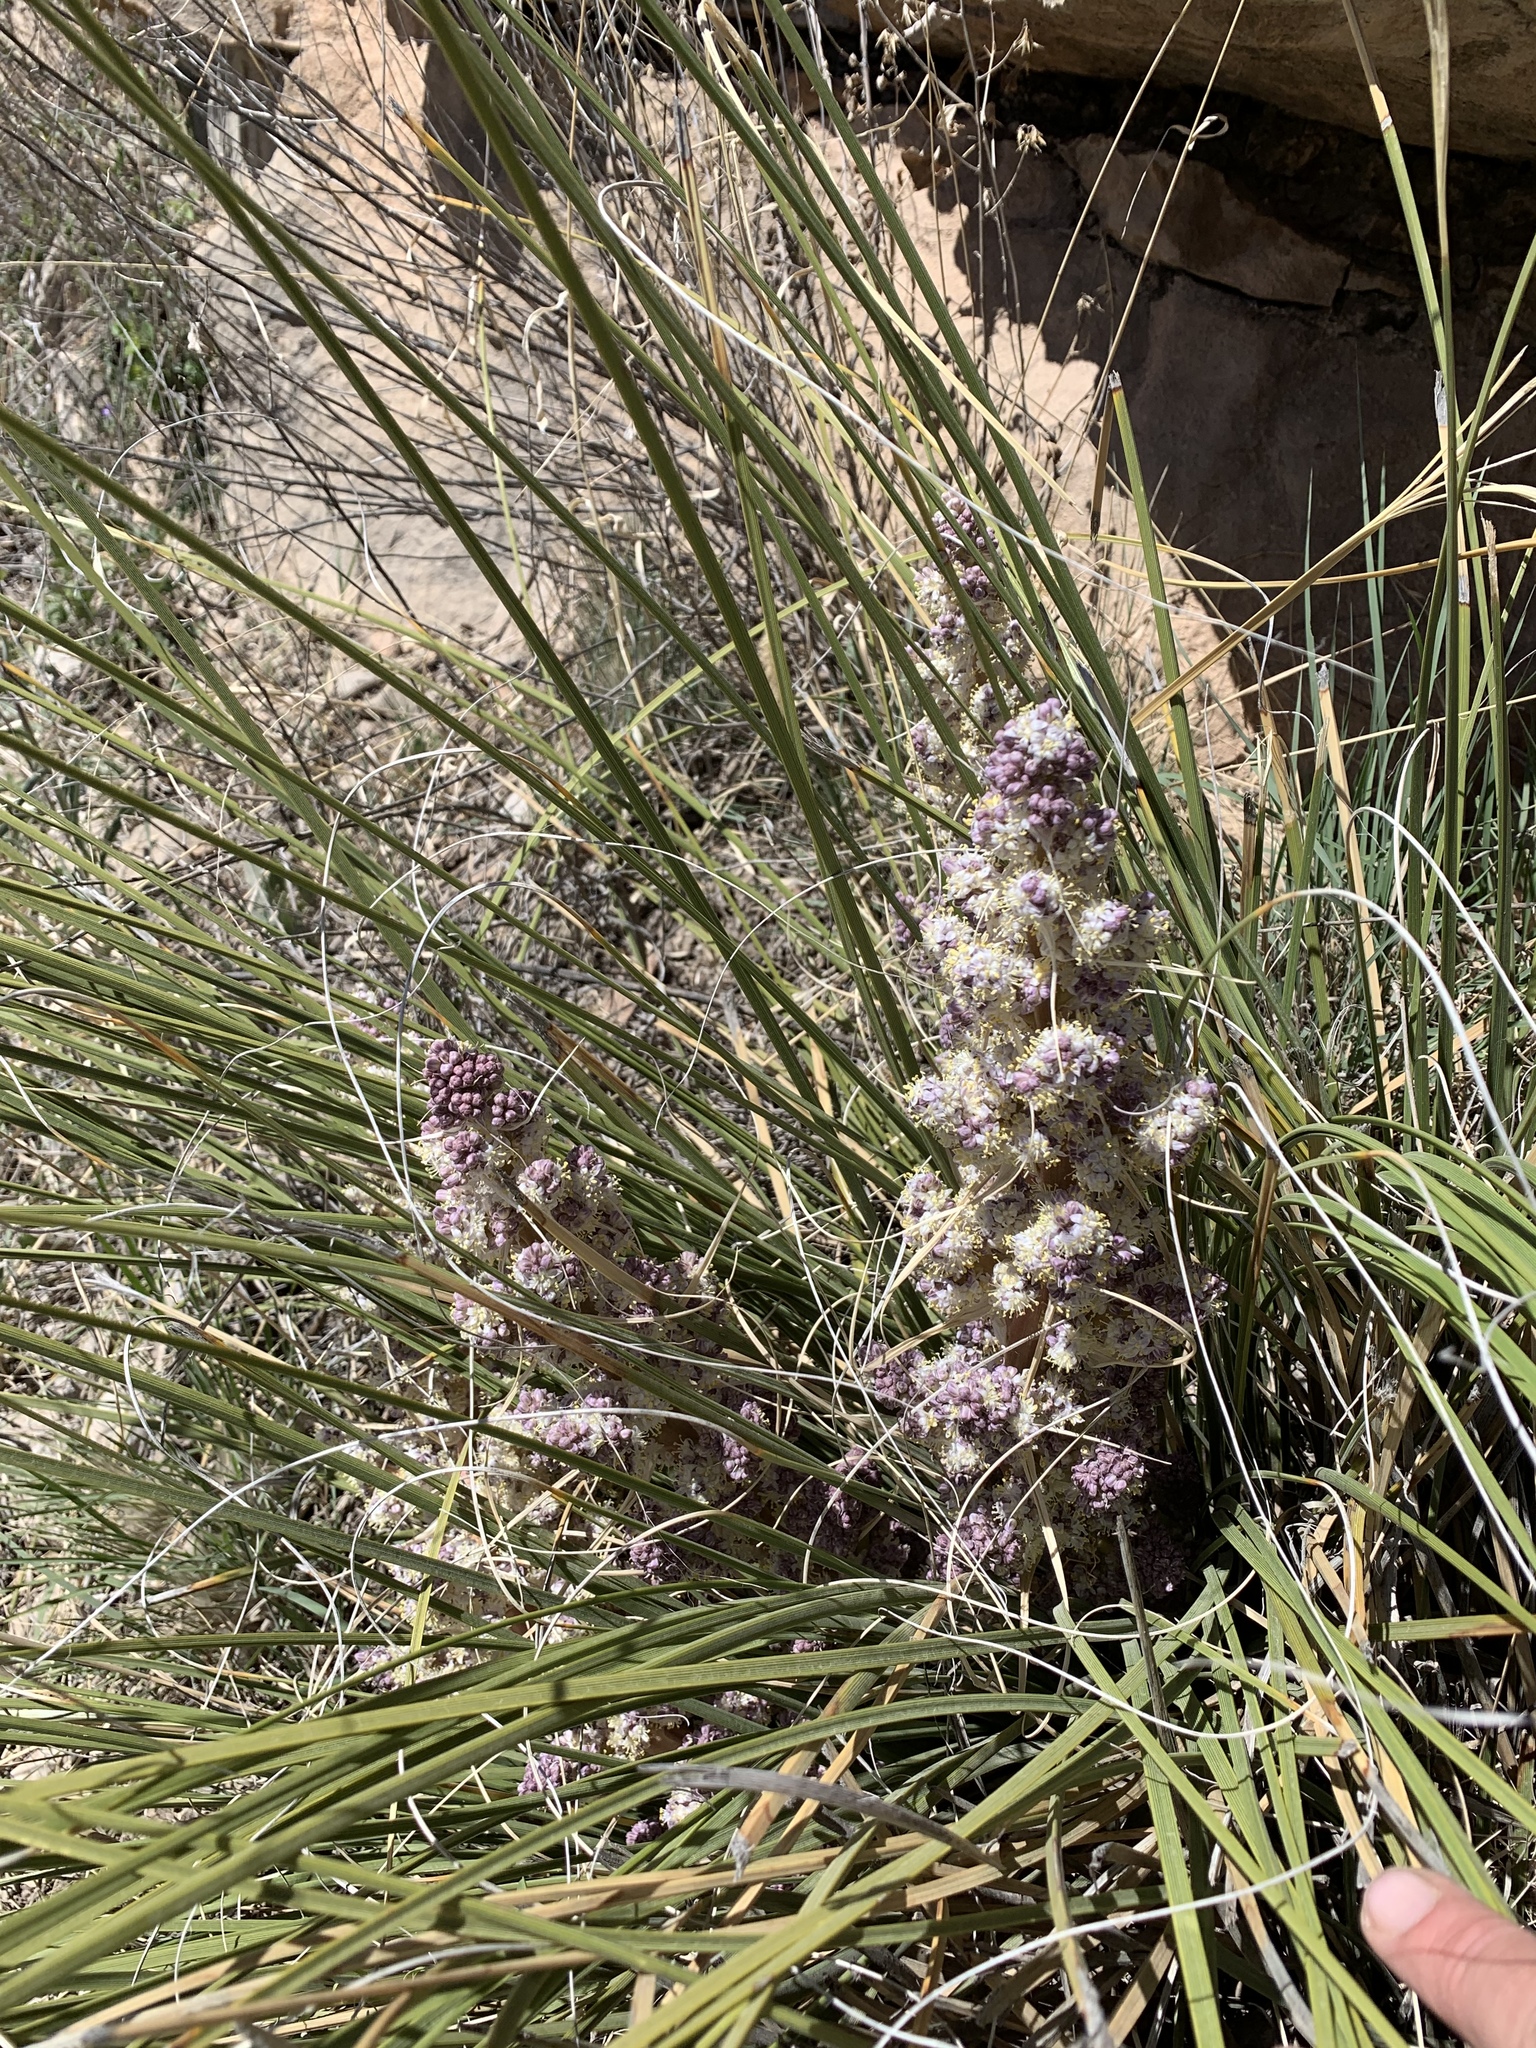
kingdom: Plantae
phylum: Tracheophyta
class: Liliopsida
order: Asparagales
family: Asparagaceae
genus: Nolina
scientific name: Nolina texana
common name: Texas sacahuiste
